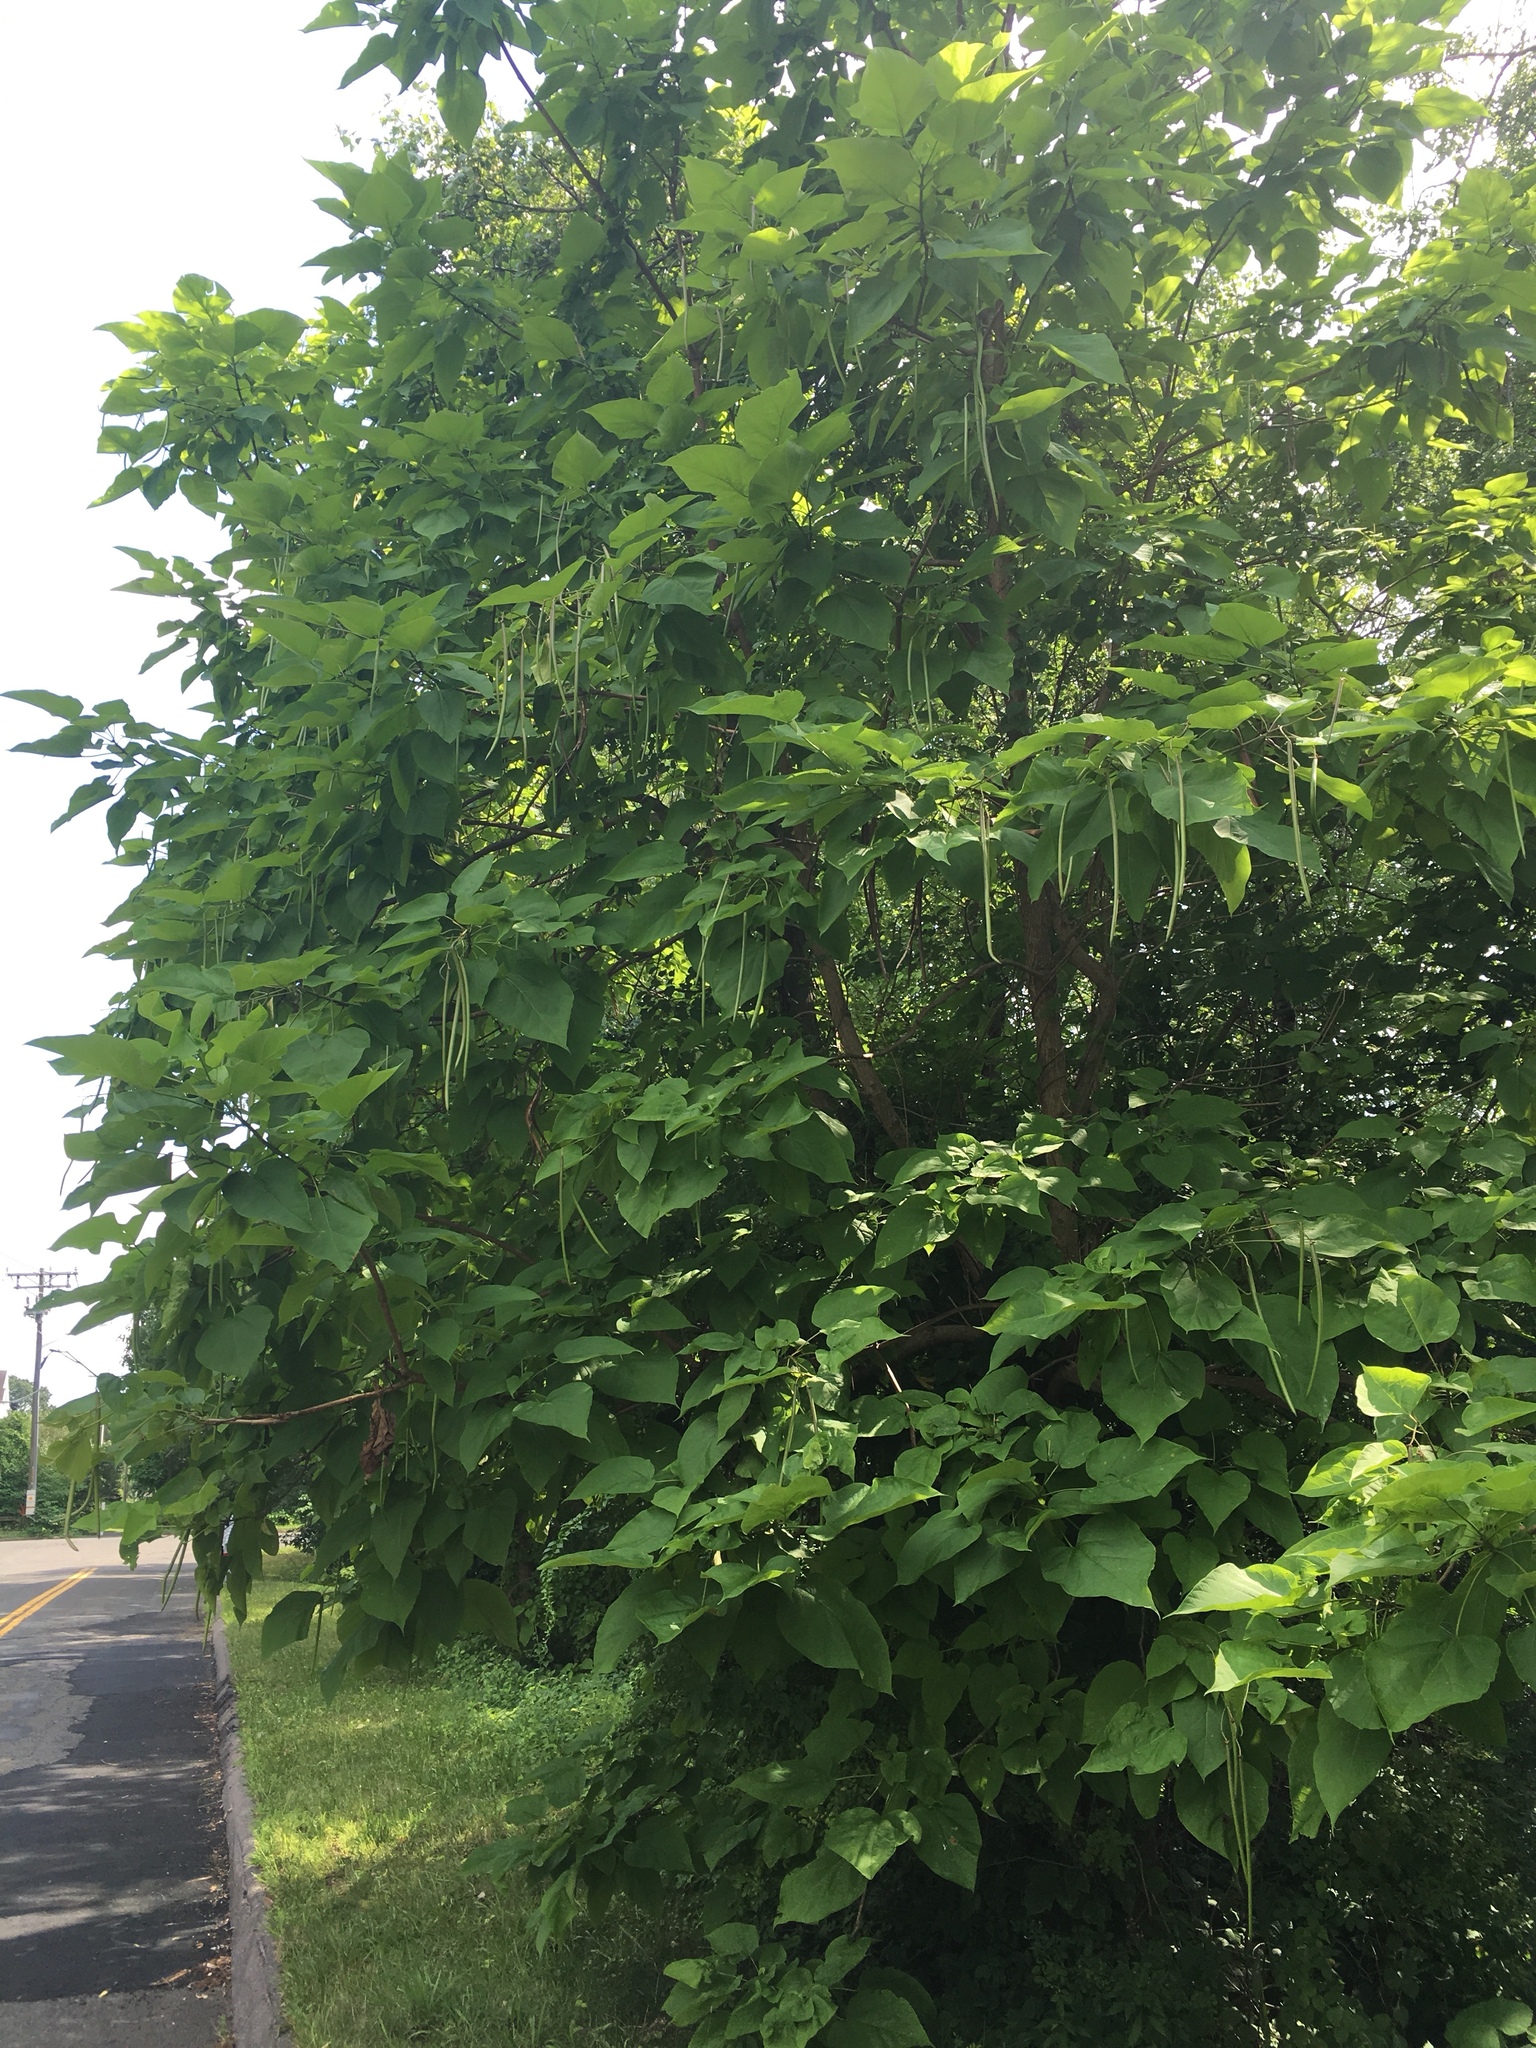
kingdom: Plantae
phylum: Tracheophyta
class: Magnoliopsida
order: Lamiales
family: Bignoniaceae
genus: Catalpa
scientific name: Catalpa speciosa
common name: Northern catalpa
